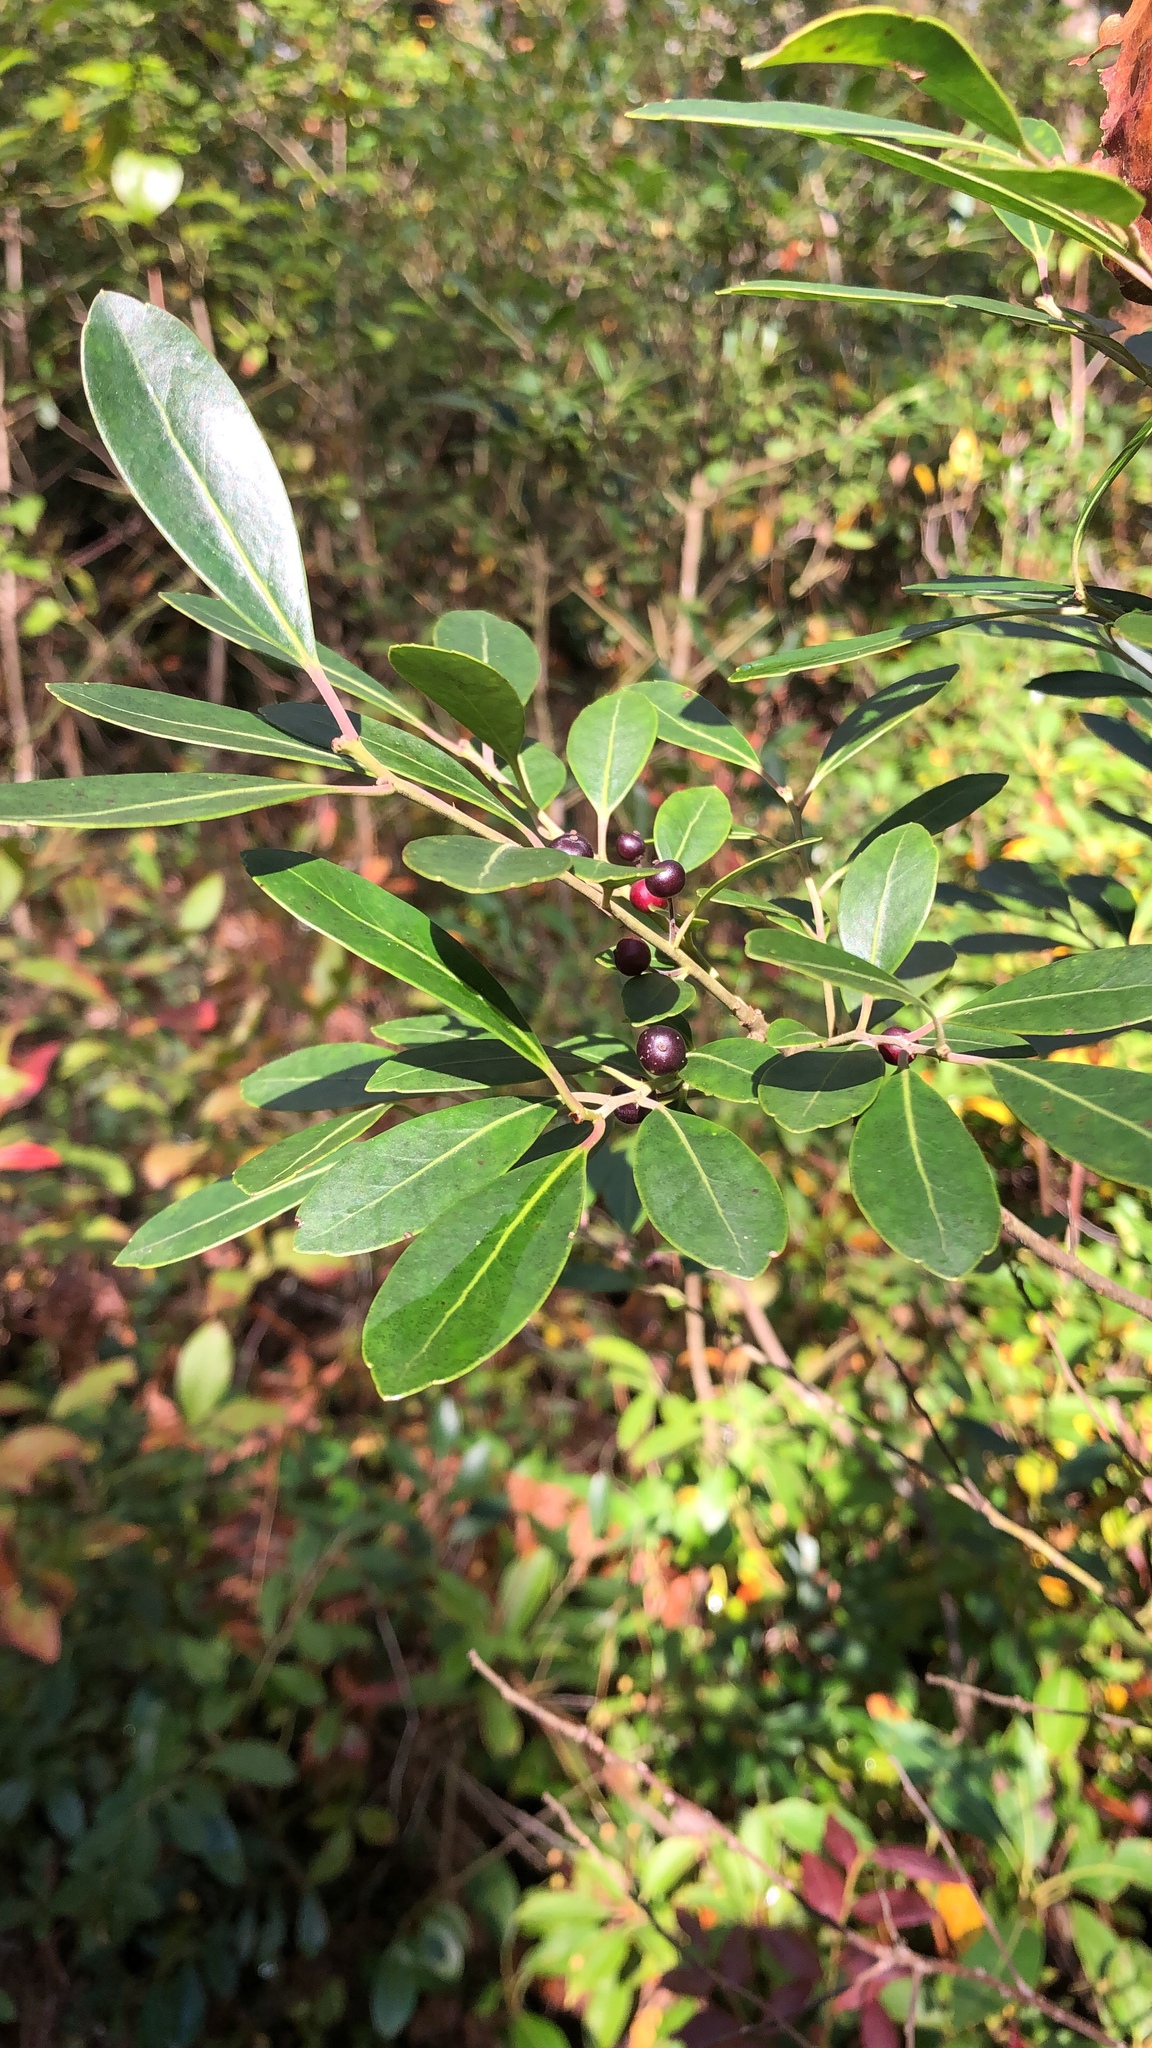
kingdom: Plantae
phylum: Tracheophyta
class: Magnoliopsida
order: Aquifoliales
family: Aquifoliaceae
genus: Ilex
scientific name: Ilex glabra
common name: Bitter gallberry
